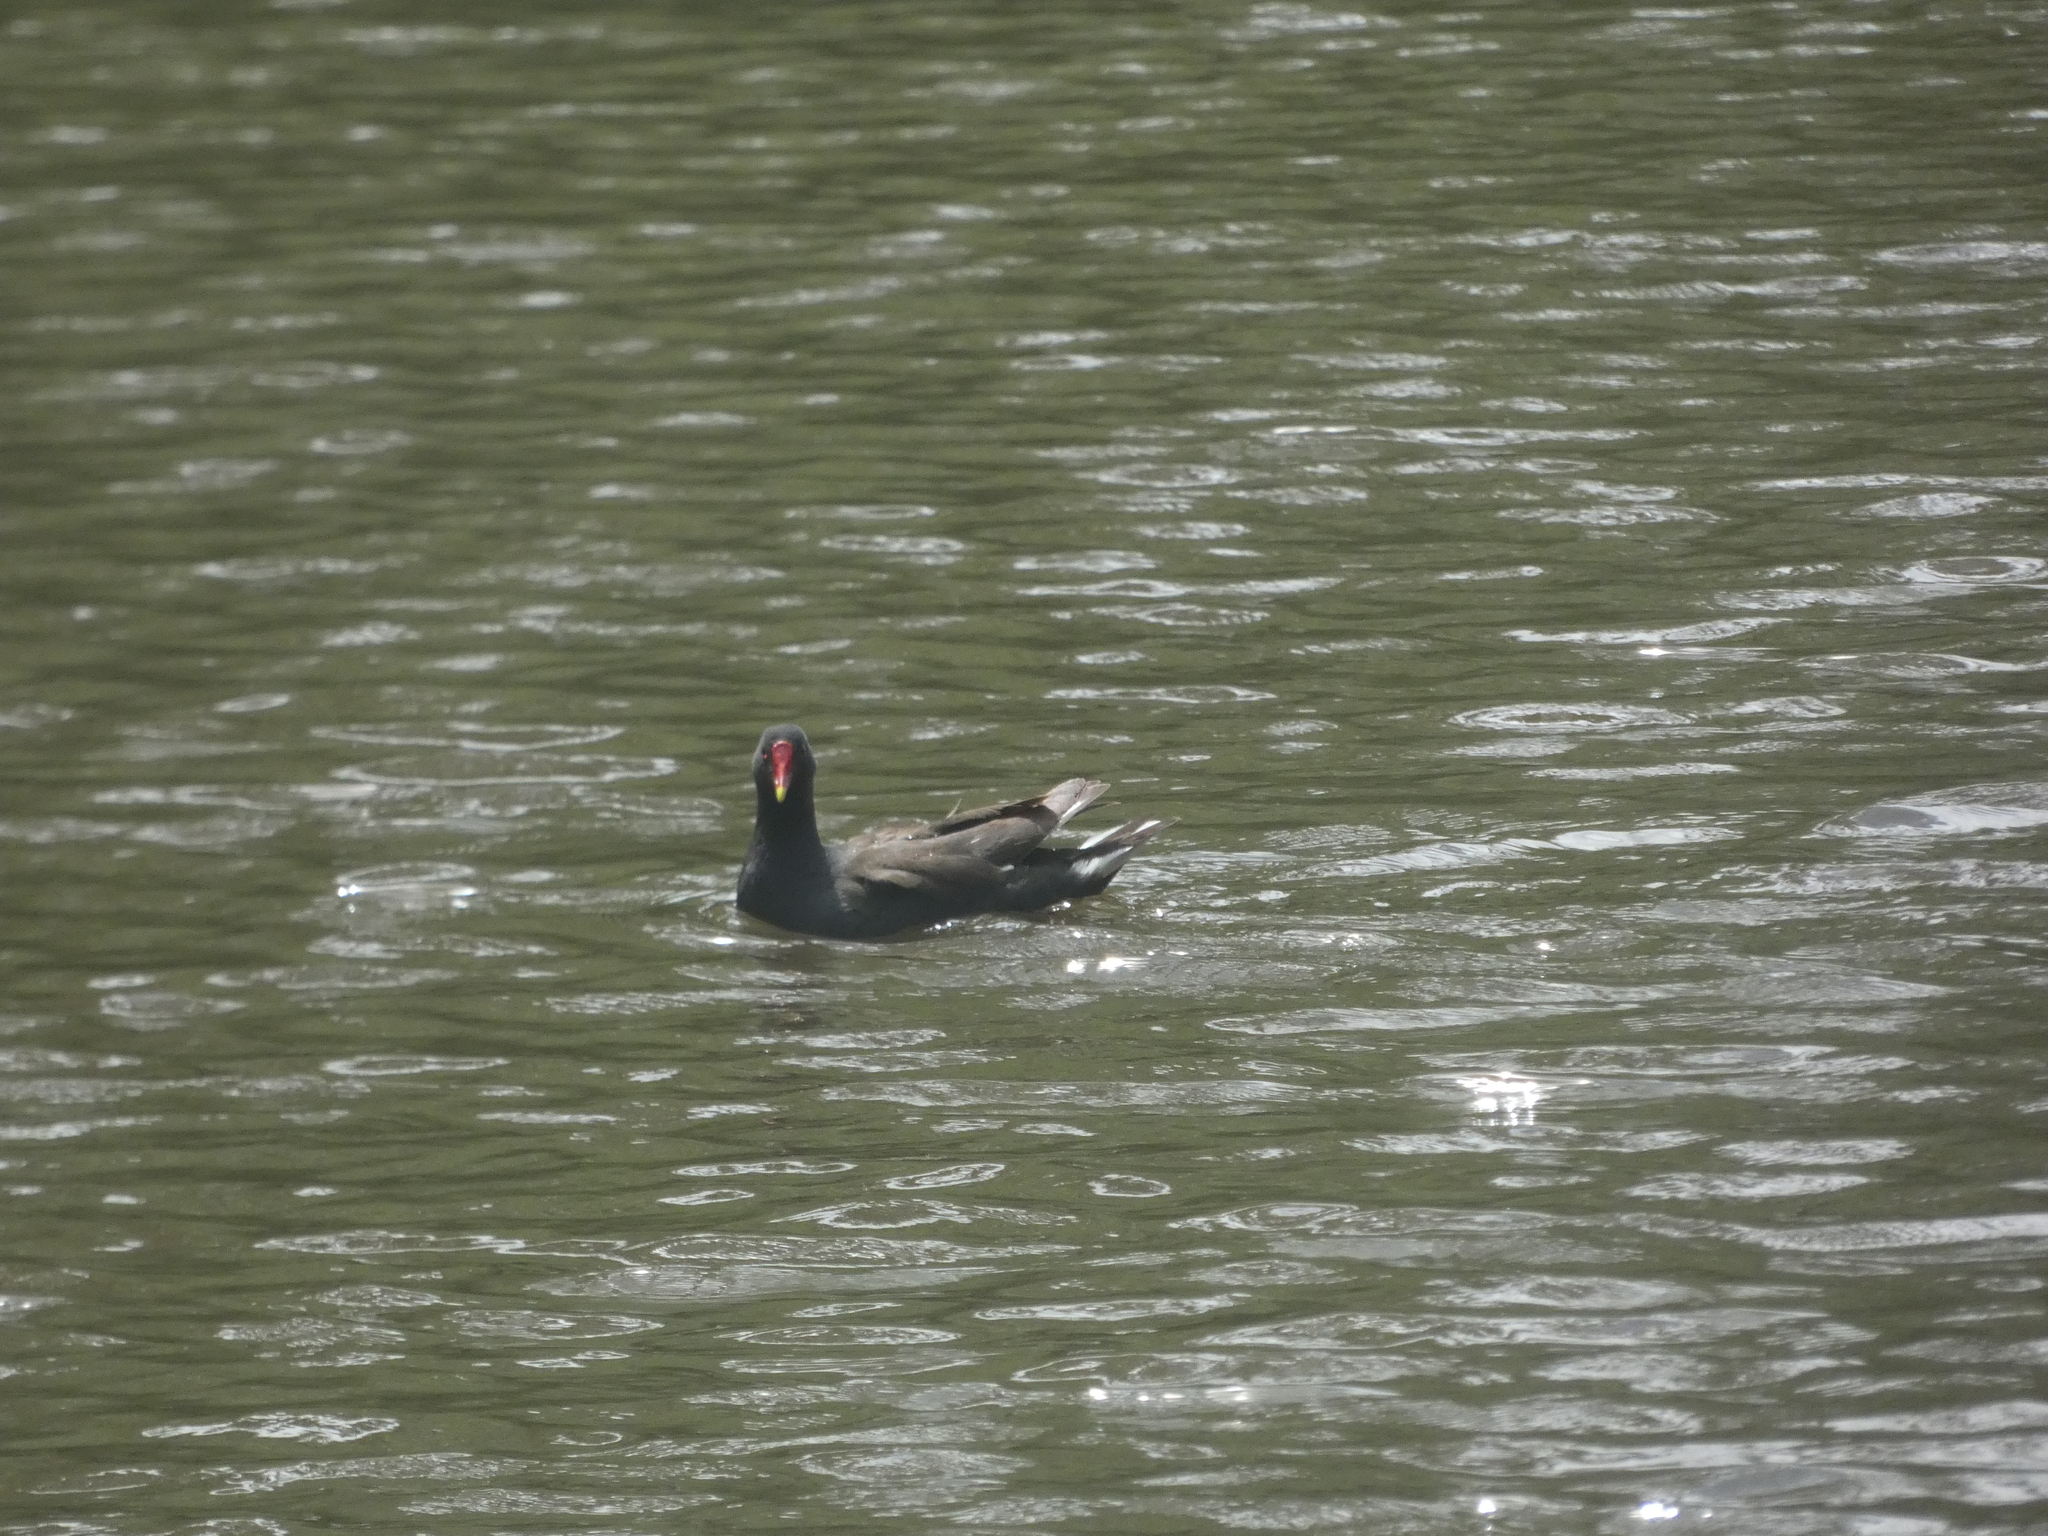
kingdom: Animalia
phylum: Chordata
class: Aves
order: Gruiformes
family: Rallidae
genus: Gallinula
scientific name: Gallinula chloropus
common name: Common moorhen
